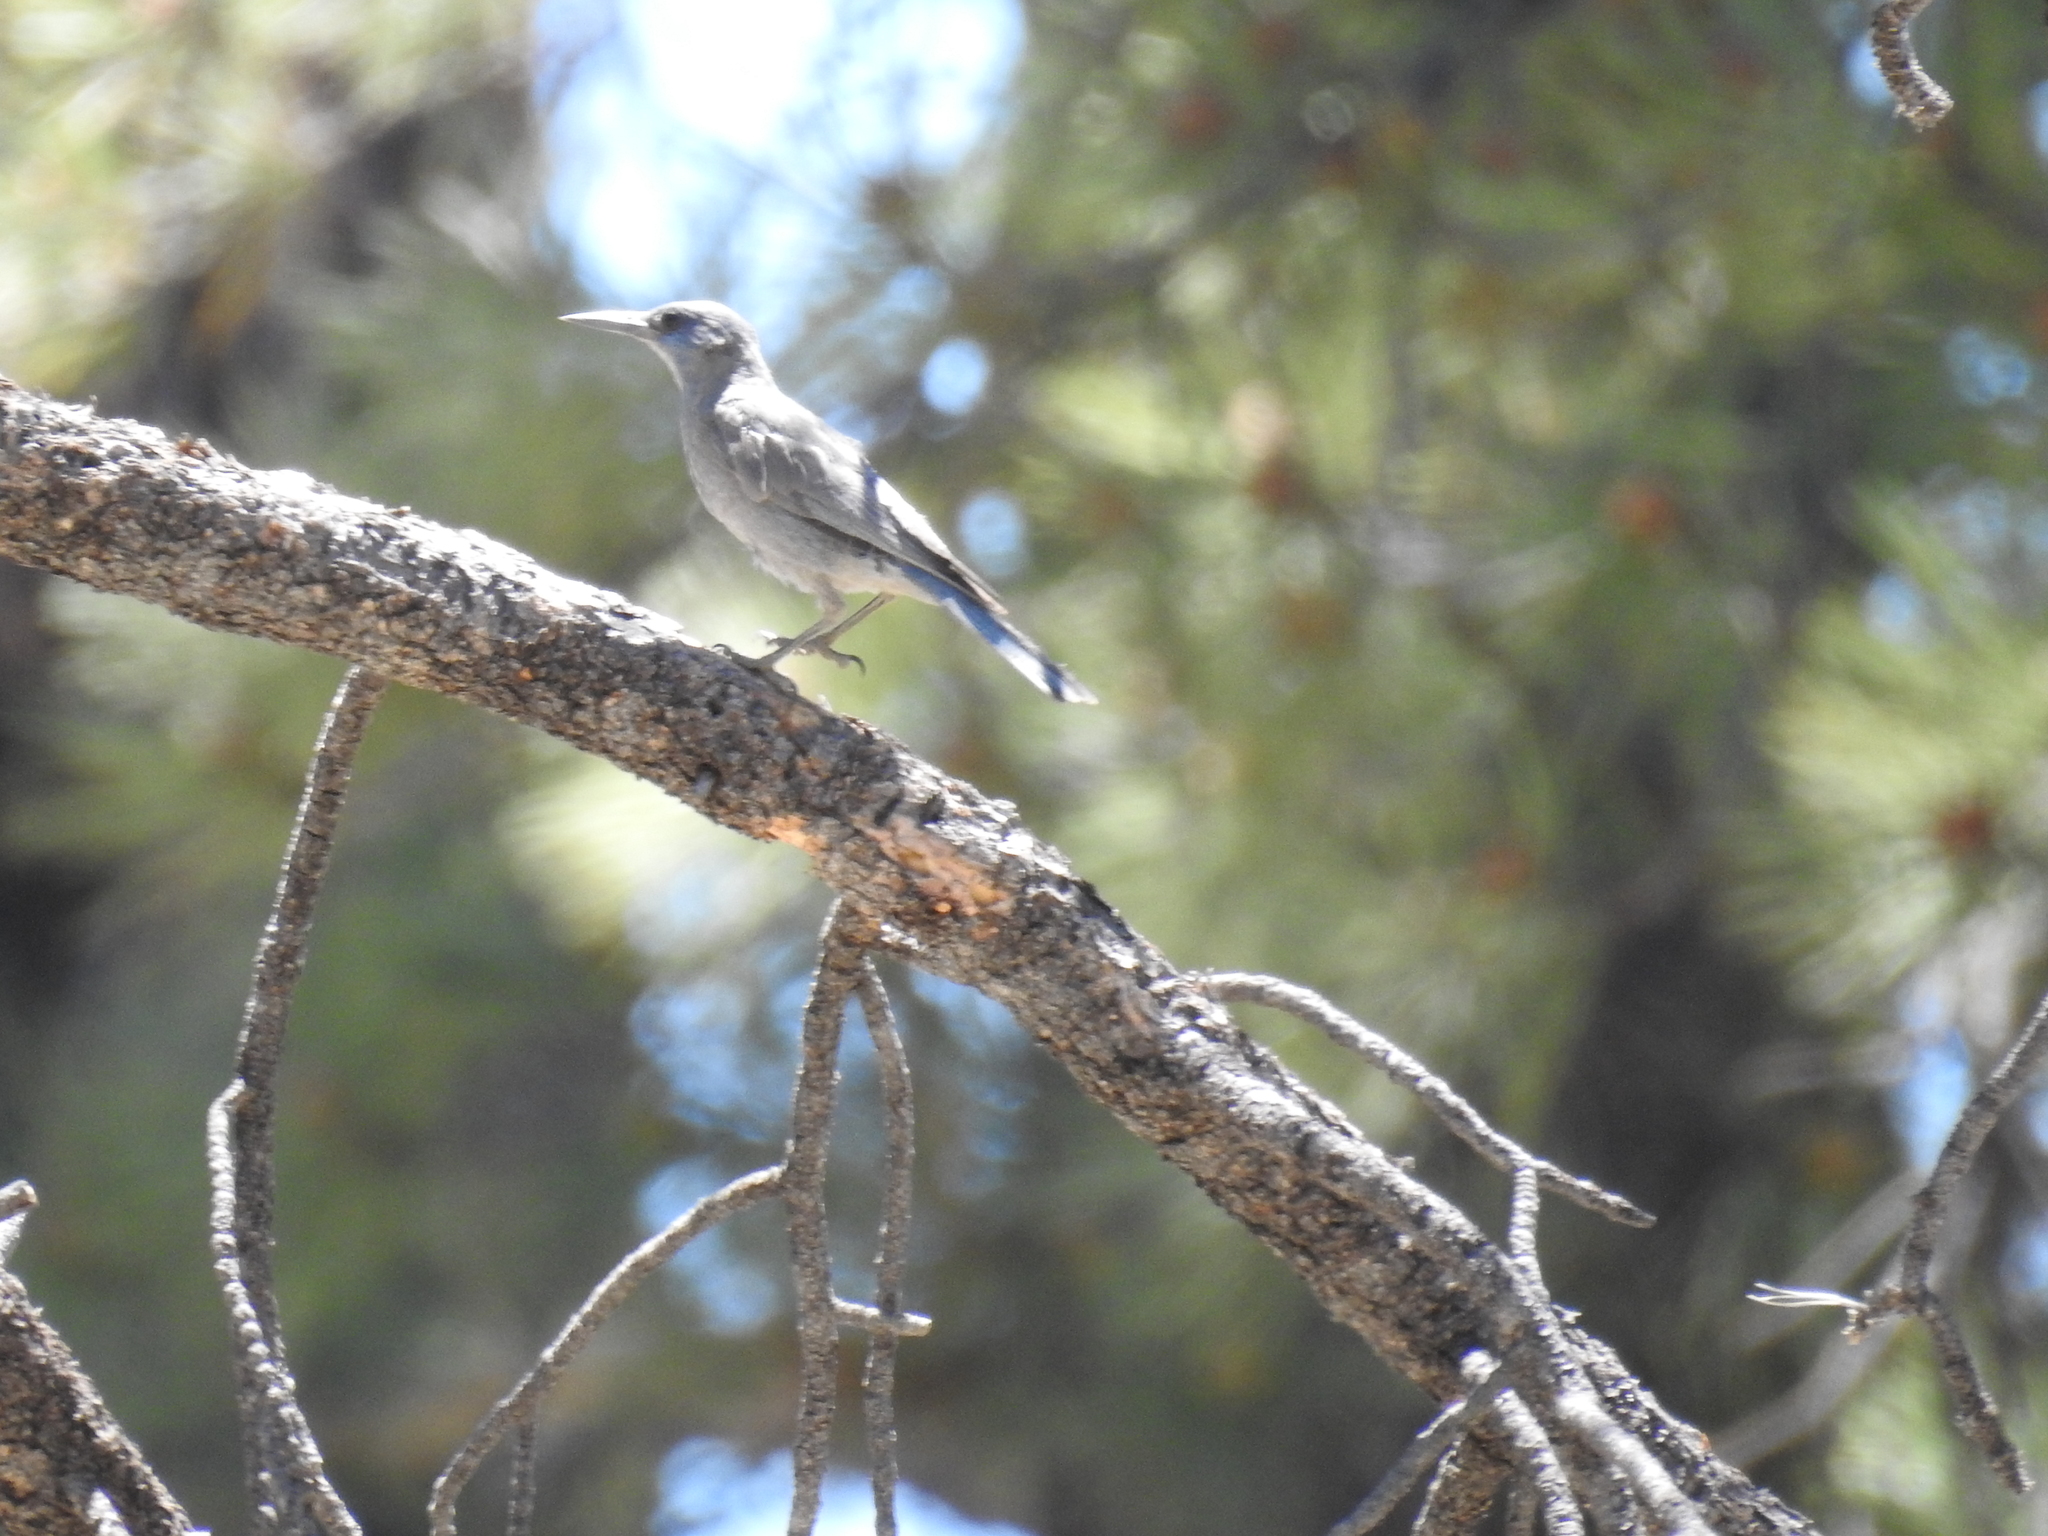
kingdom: Animalia
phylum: Chordata
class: Aves
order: Passeriformes
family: Corvidae
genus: Gymnorhinus
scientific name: Gymnorhinus cyanocephalus
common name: Pinyon jay
